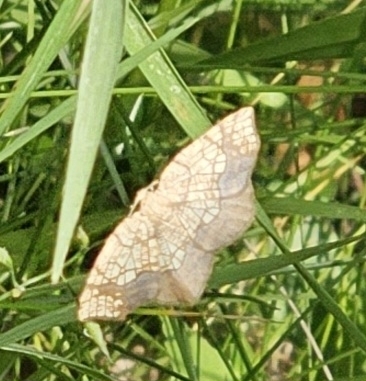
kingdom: Animalia
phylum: Arthropoda
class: Insecta
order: Lepidoptera
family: Geometridae
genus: Nematocampa
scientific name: Nematocampa resistaria
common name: Horned spanworm moth
